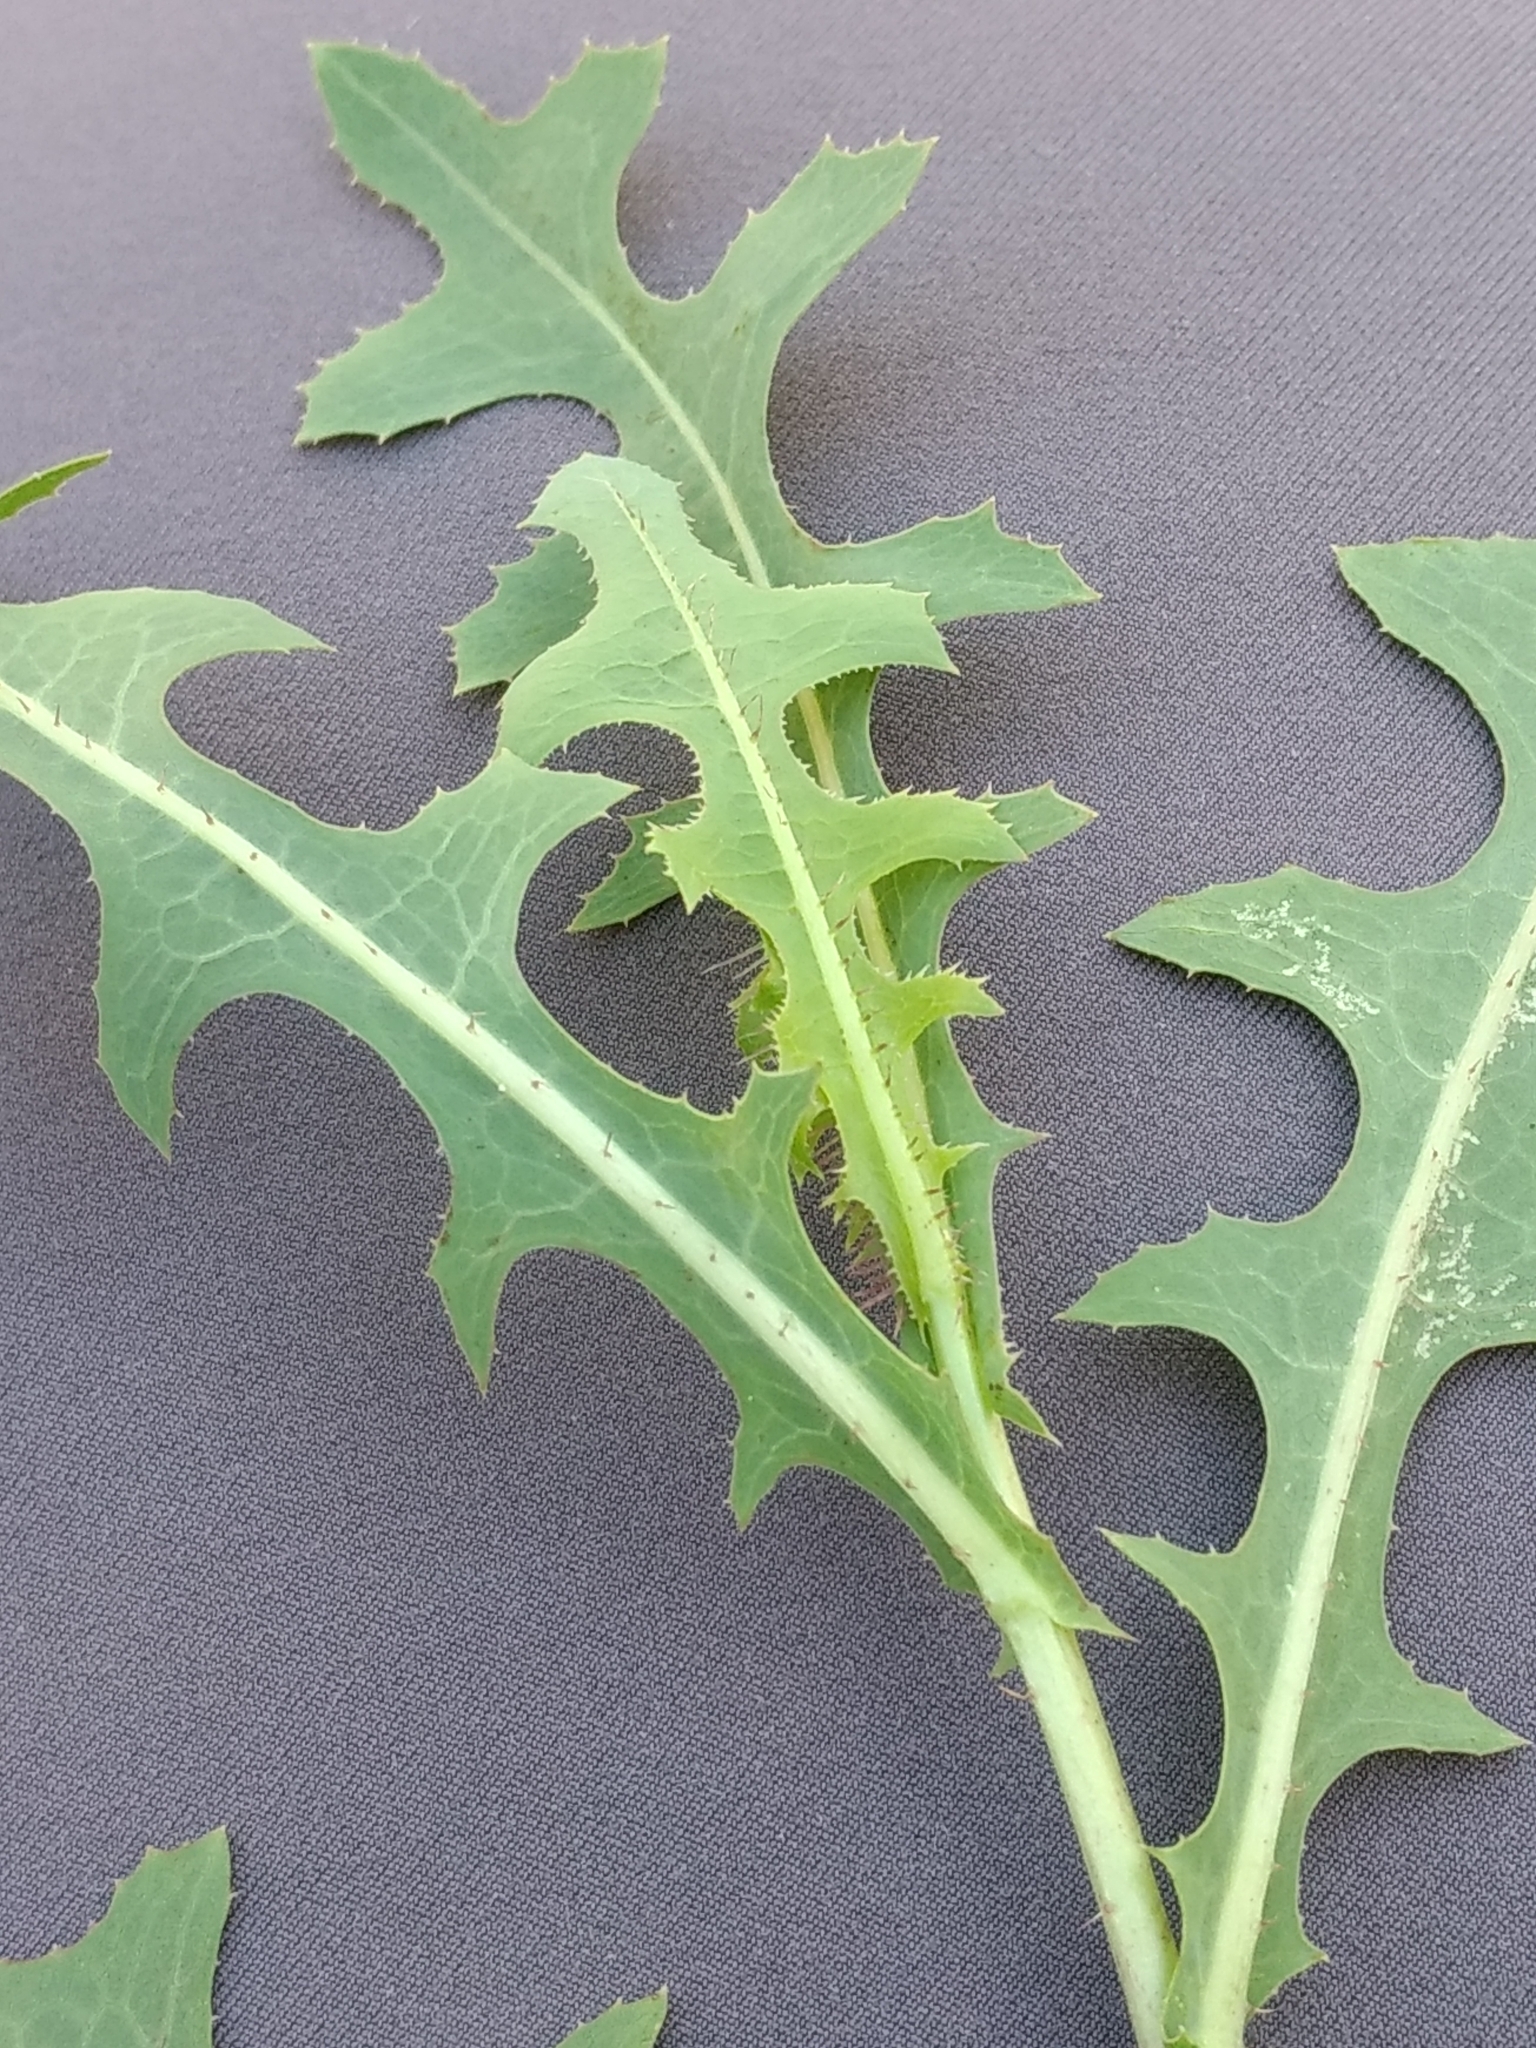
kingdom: Plantae
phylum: Tracheophyta
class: Magnoliopsida
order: Asterales
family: Asteraceae
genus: Lactuca
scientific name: Lactuca serriola
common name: Prickly lettuce
